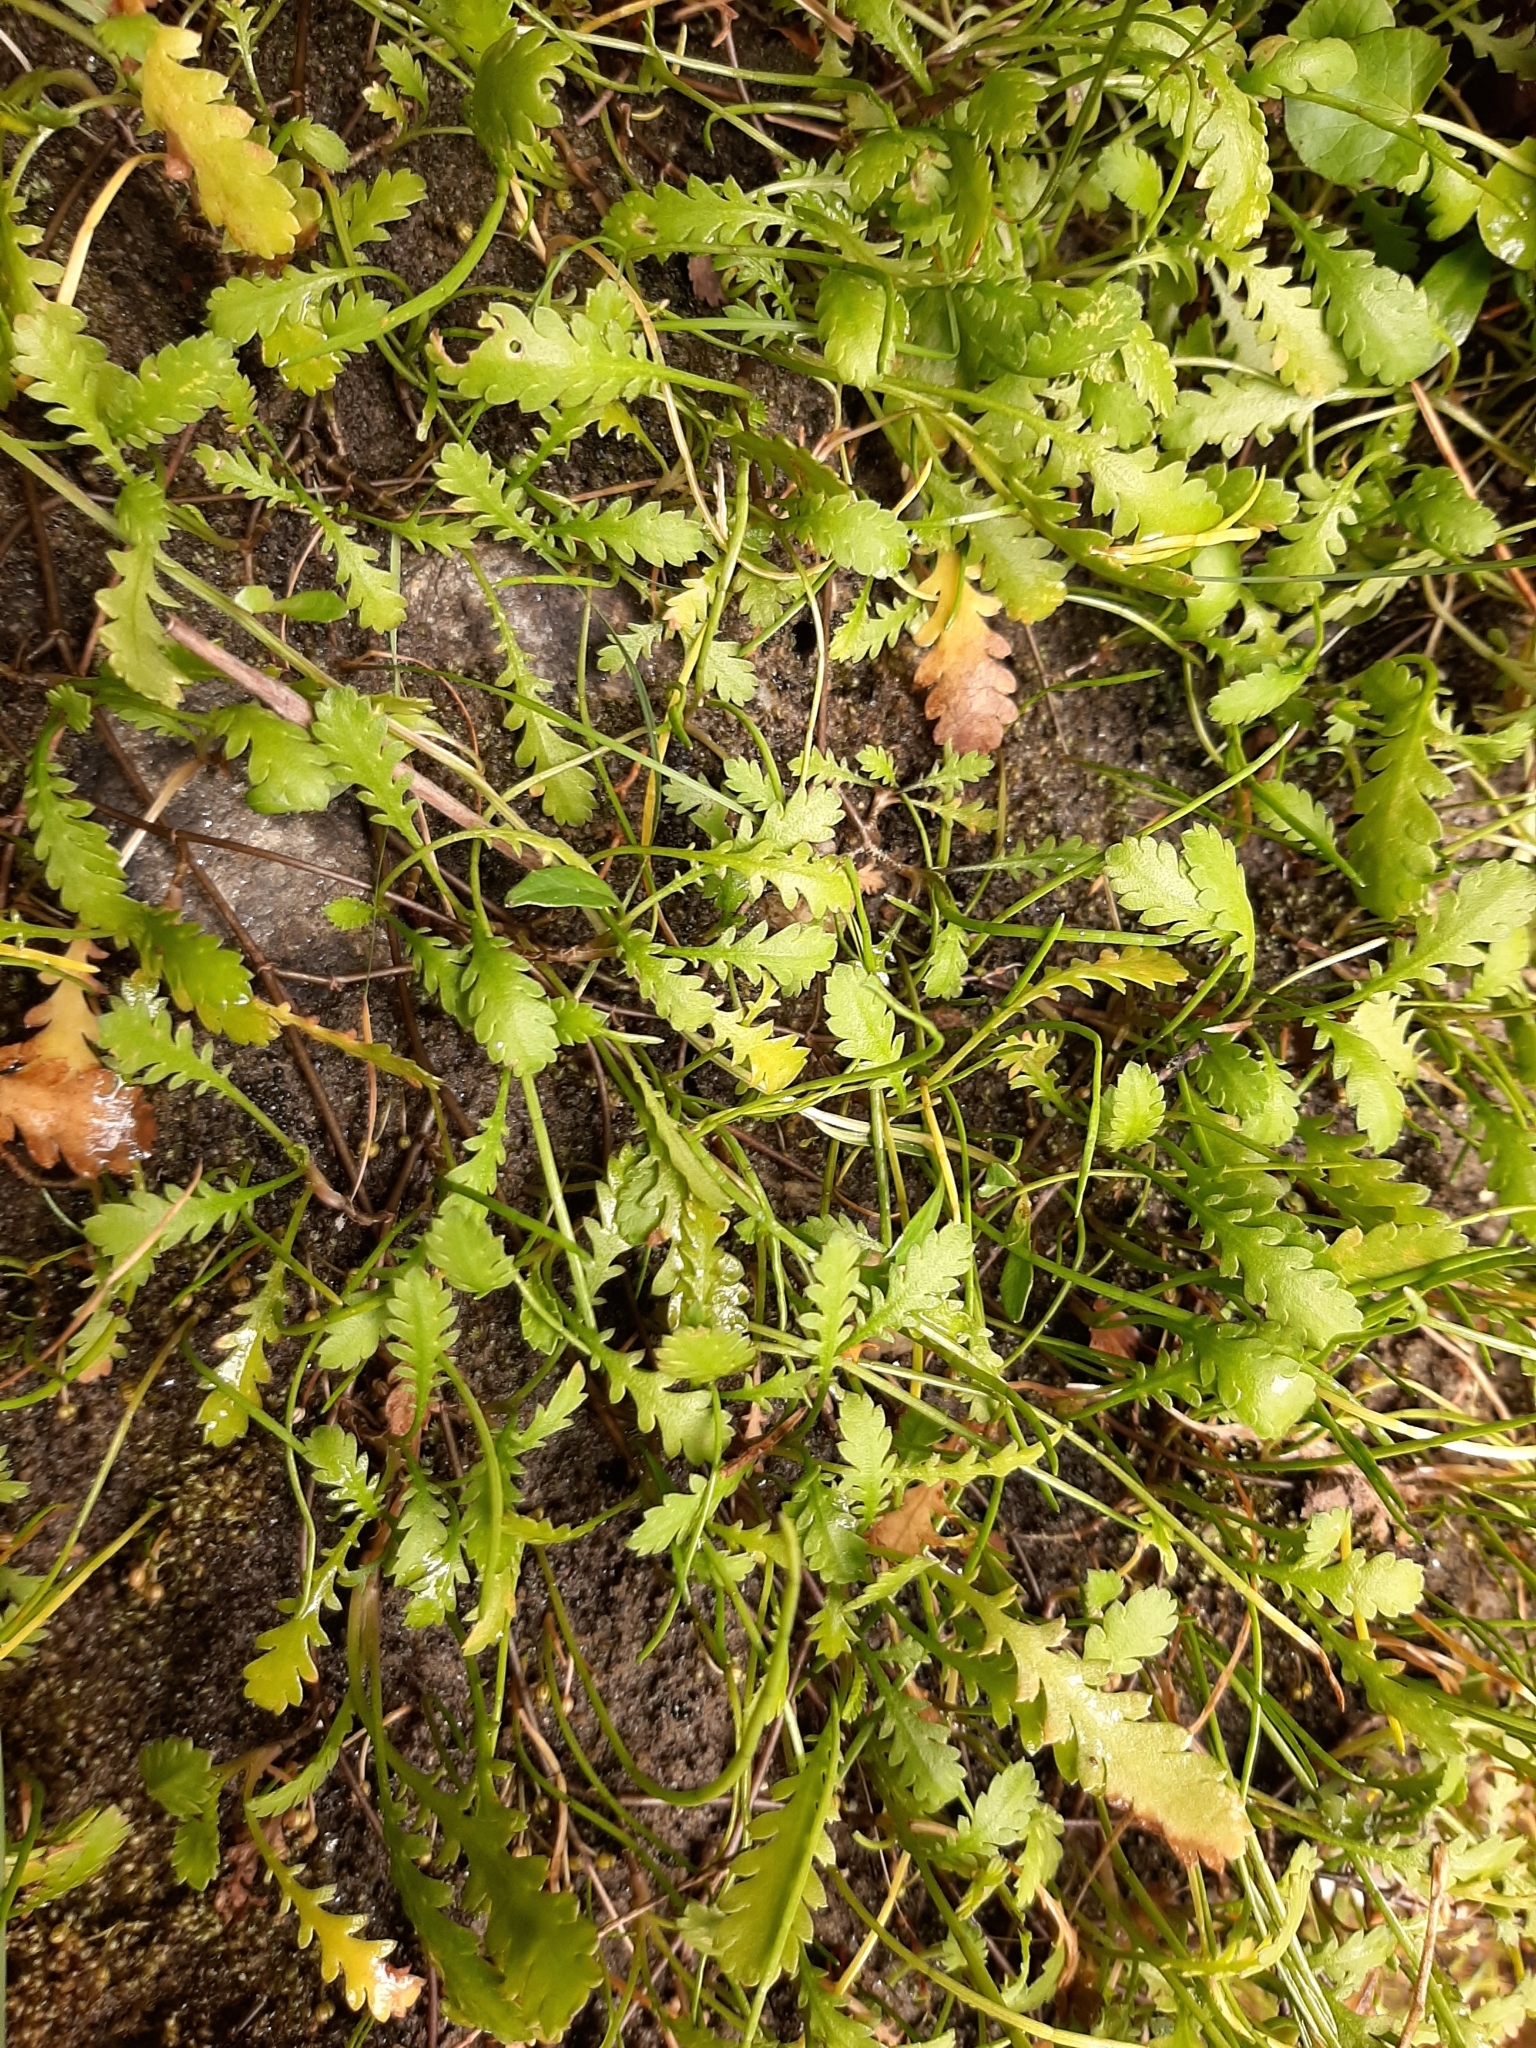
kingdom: Plantae
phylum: Tracheophyta
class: Magnoliopsida
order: Asterales
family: Asteraceae
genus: Leptinella
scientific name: Leptinella dioica
